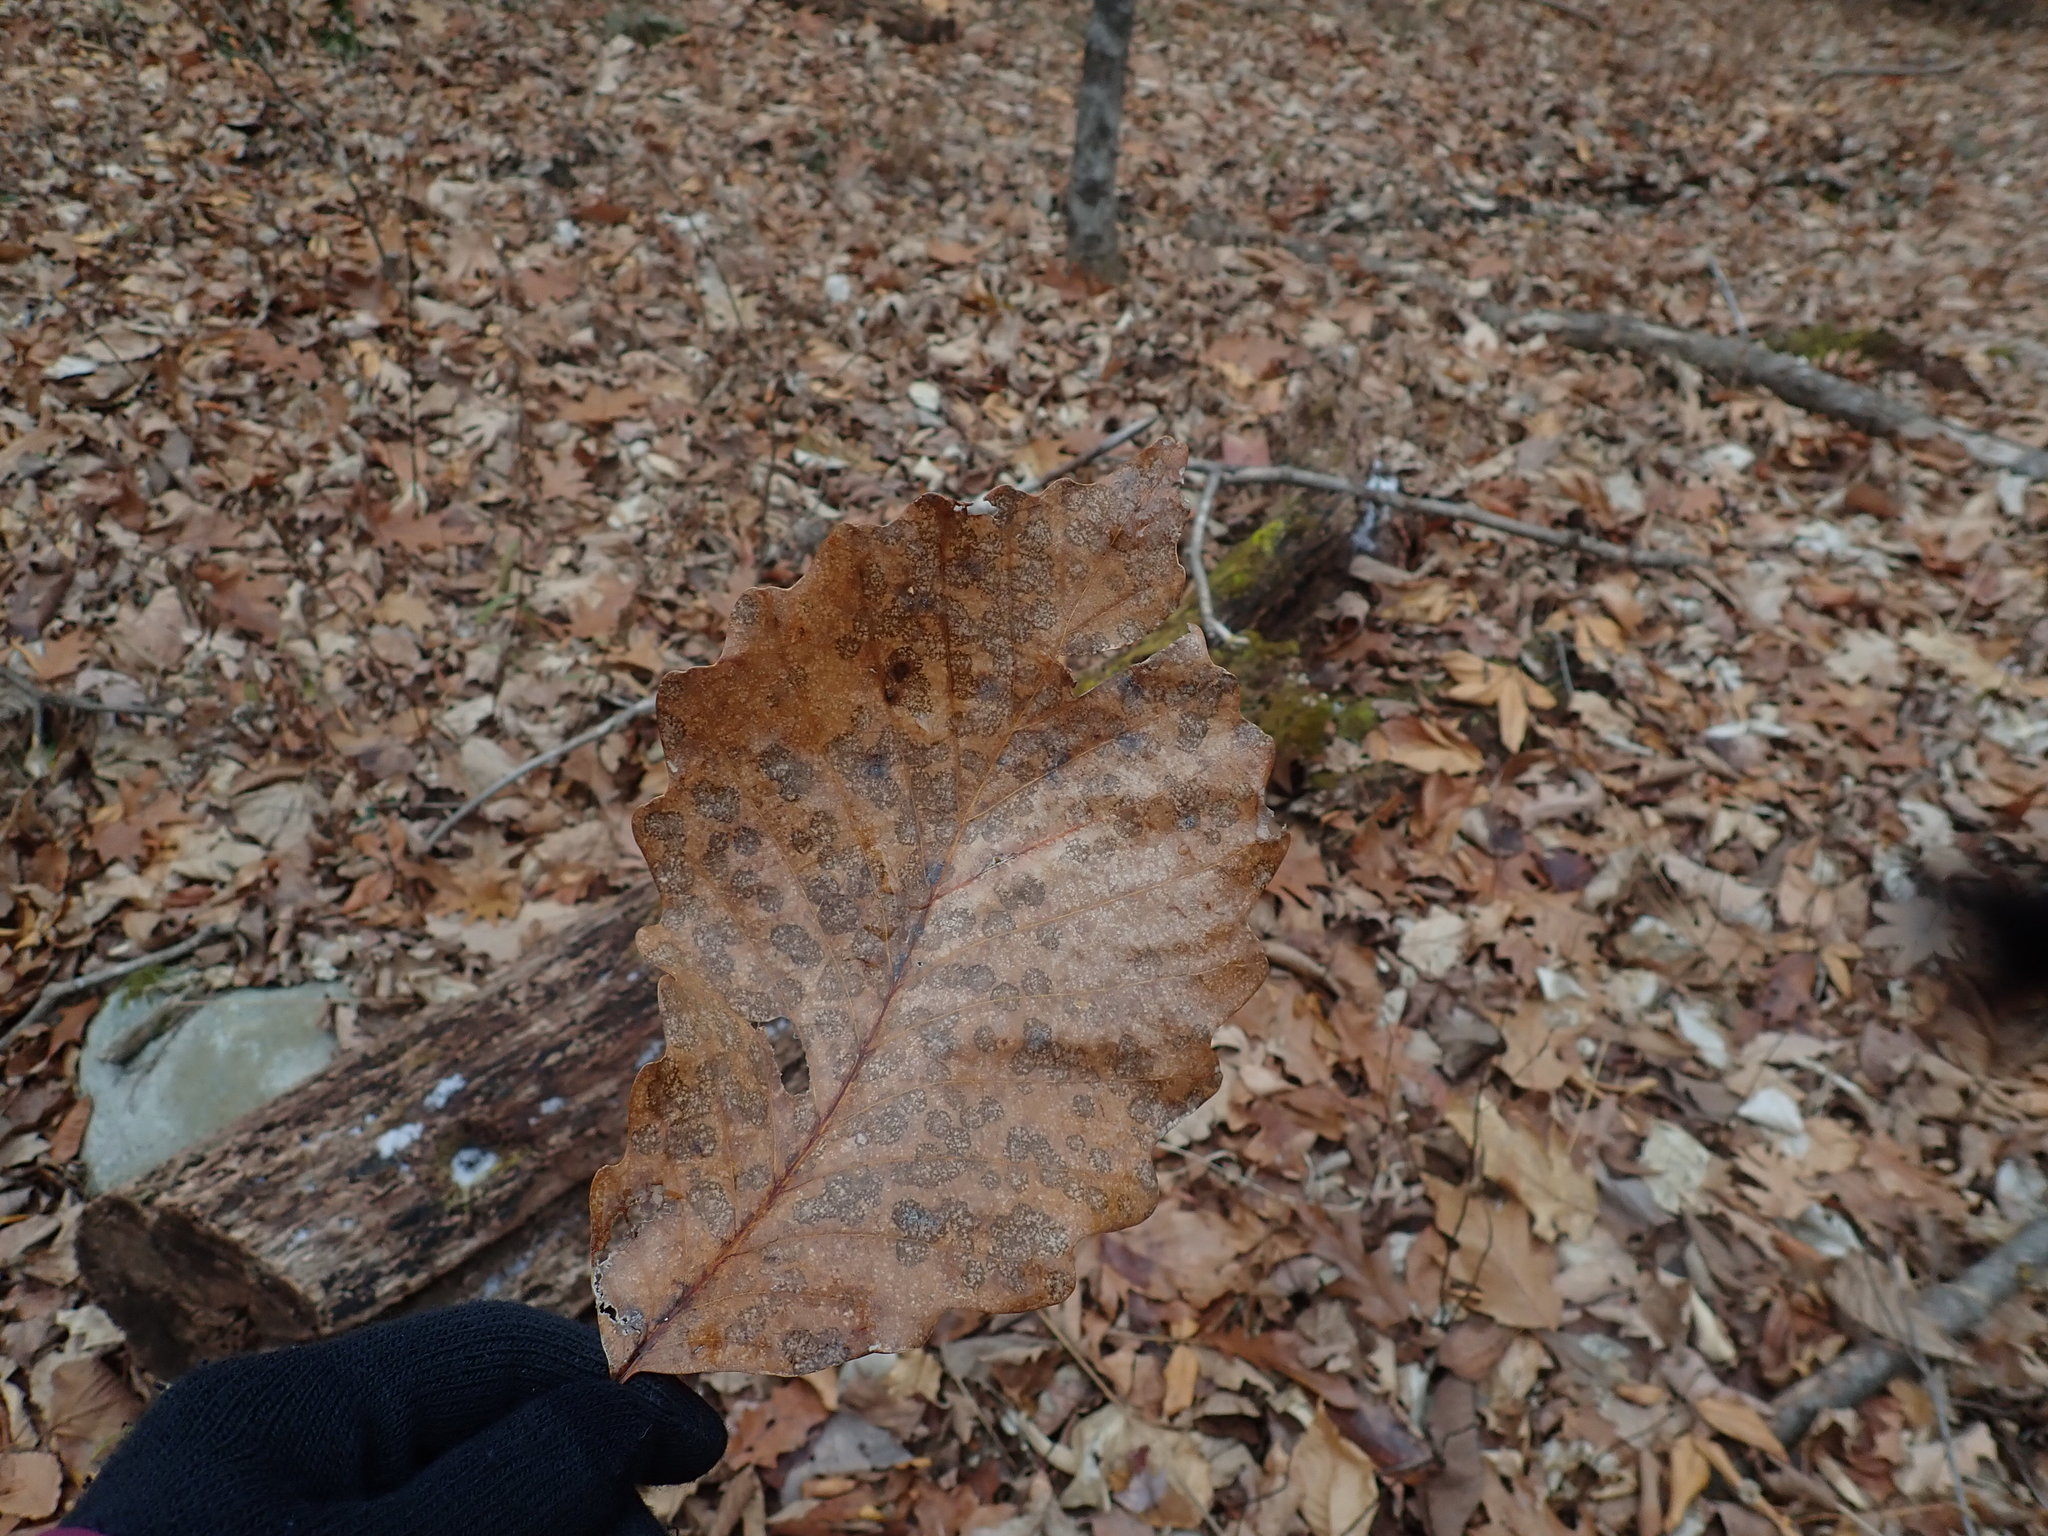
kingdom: Plantae
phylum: Tracheophyta
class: Magnoliopsida
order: Fagales
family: Fagaceae
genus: Quercus
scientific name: Quercus montana
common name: Chestnut oak
